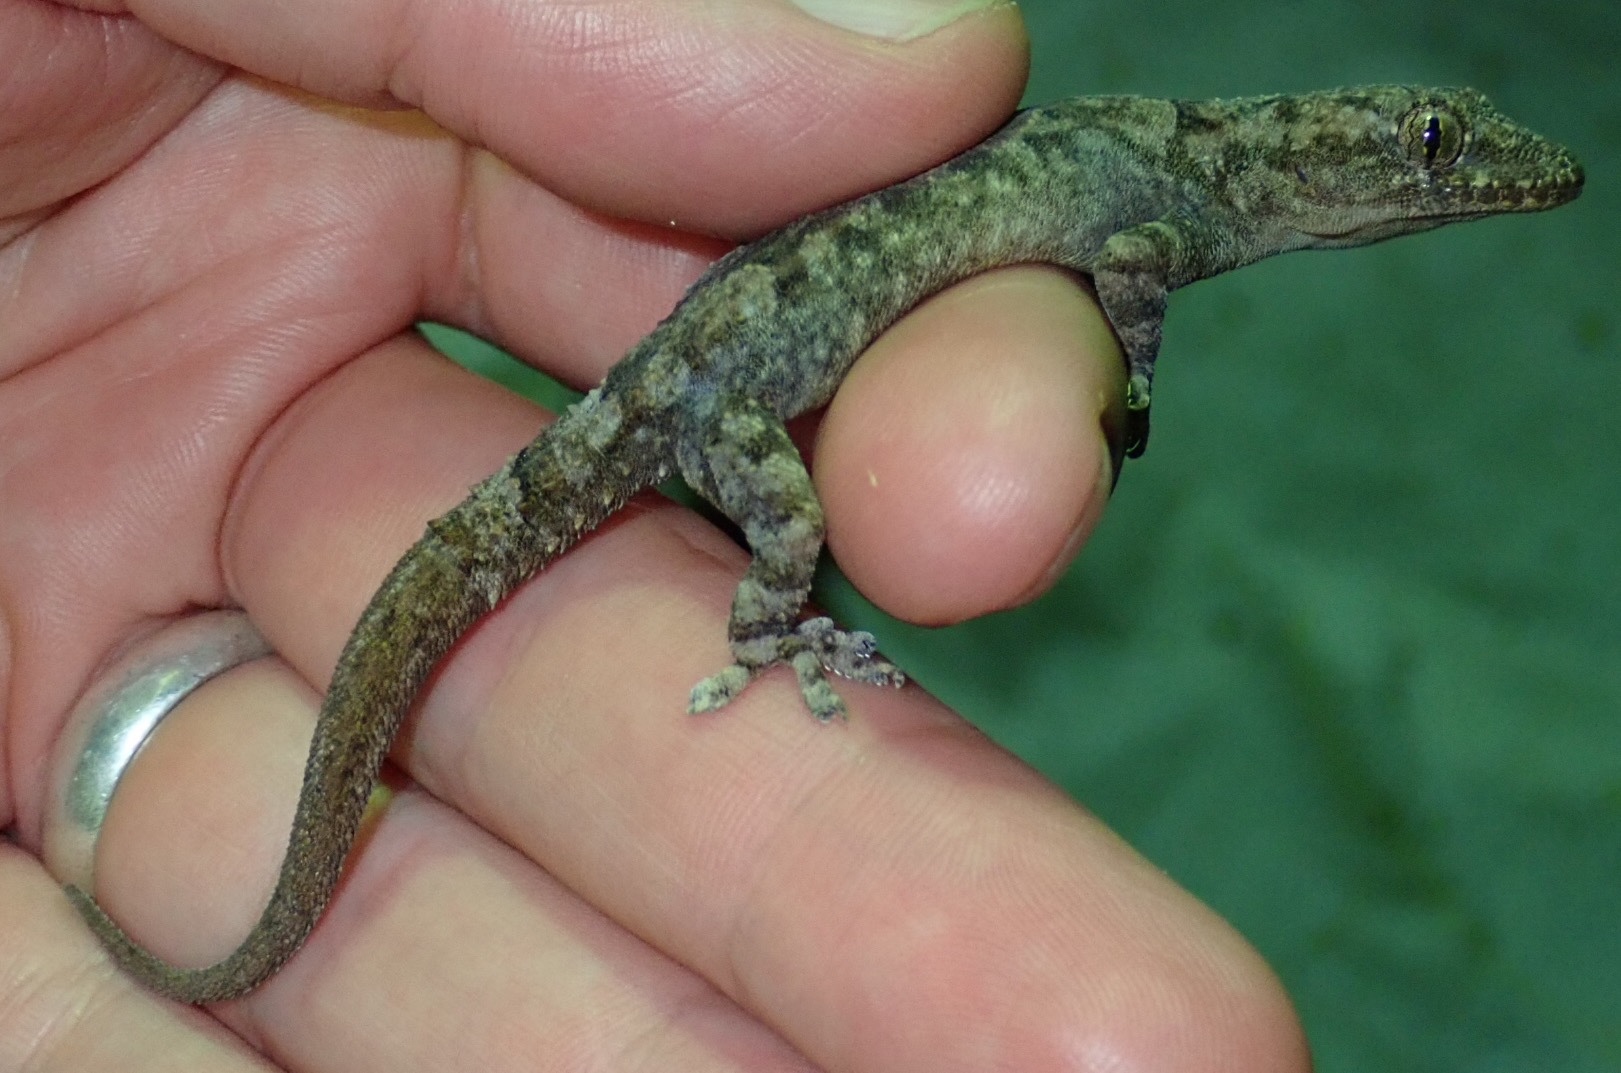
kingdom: Animalia
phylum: Chordata
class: Squamata
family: Gekkonidae
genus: Hemidactylus
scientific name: Hemidactylus mabouia
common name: House gecko
